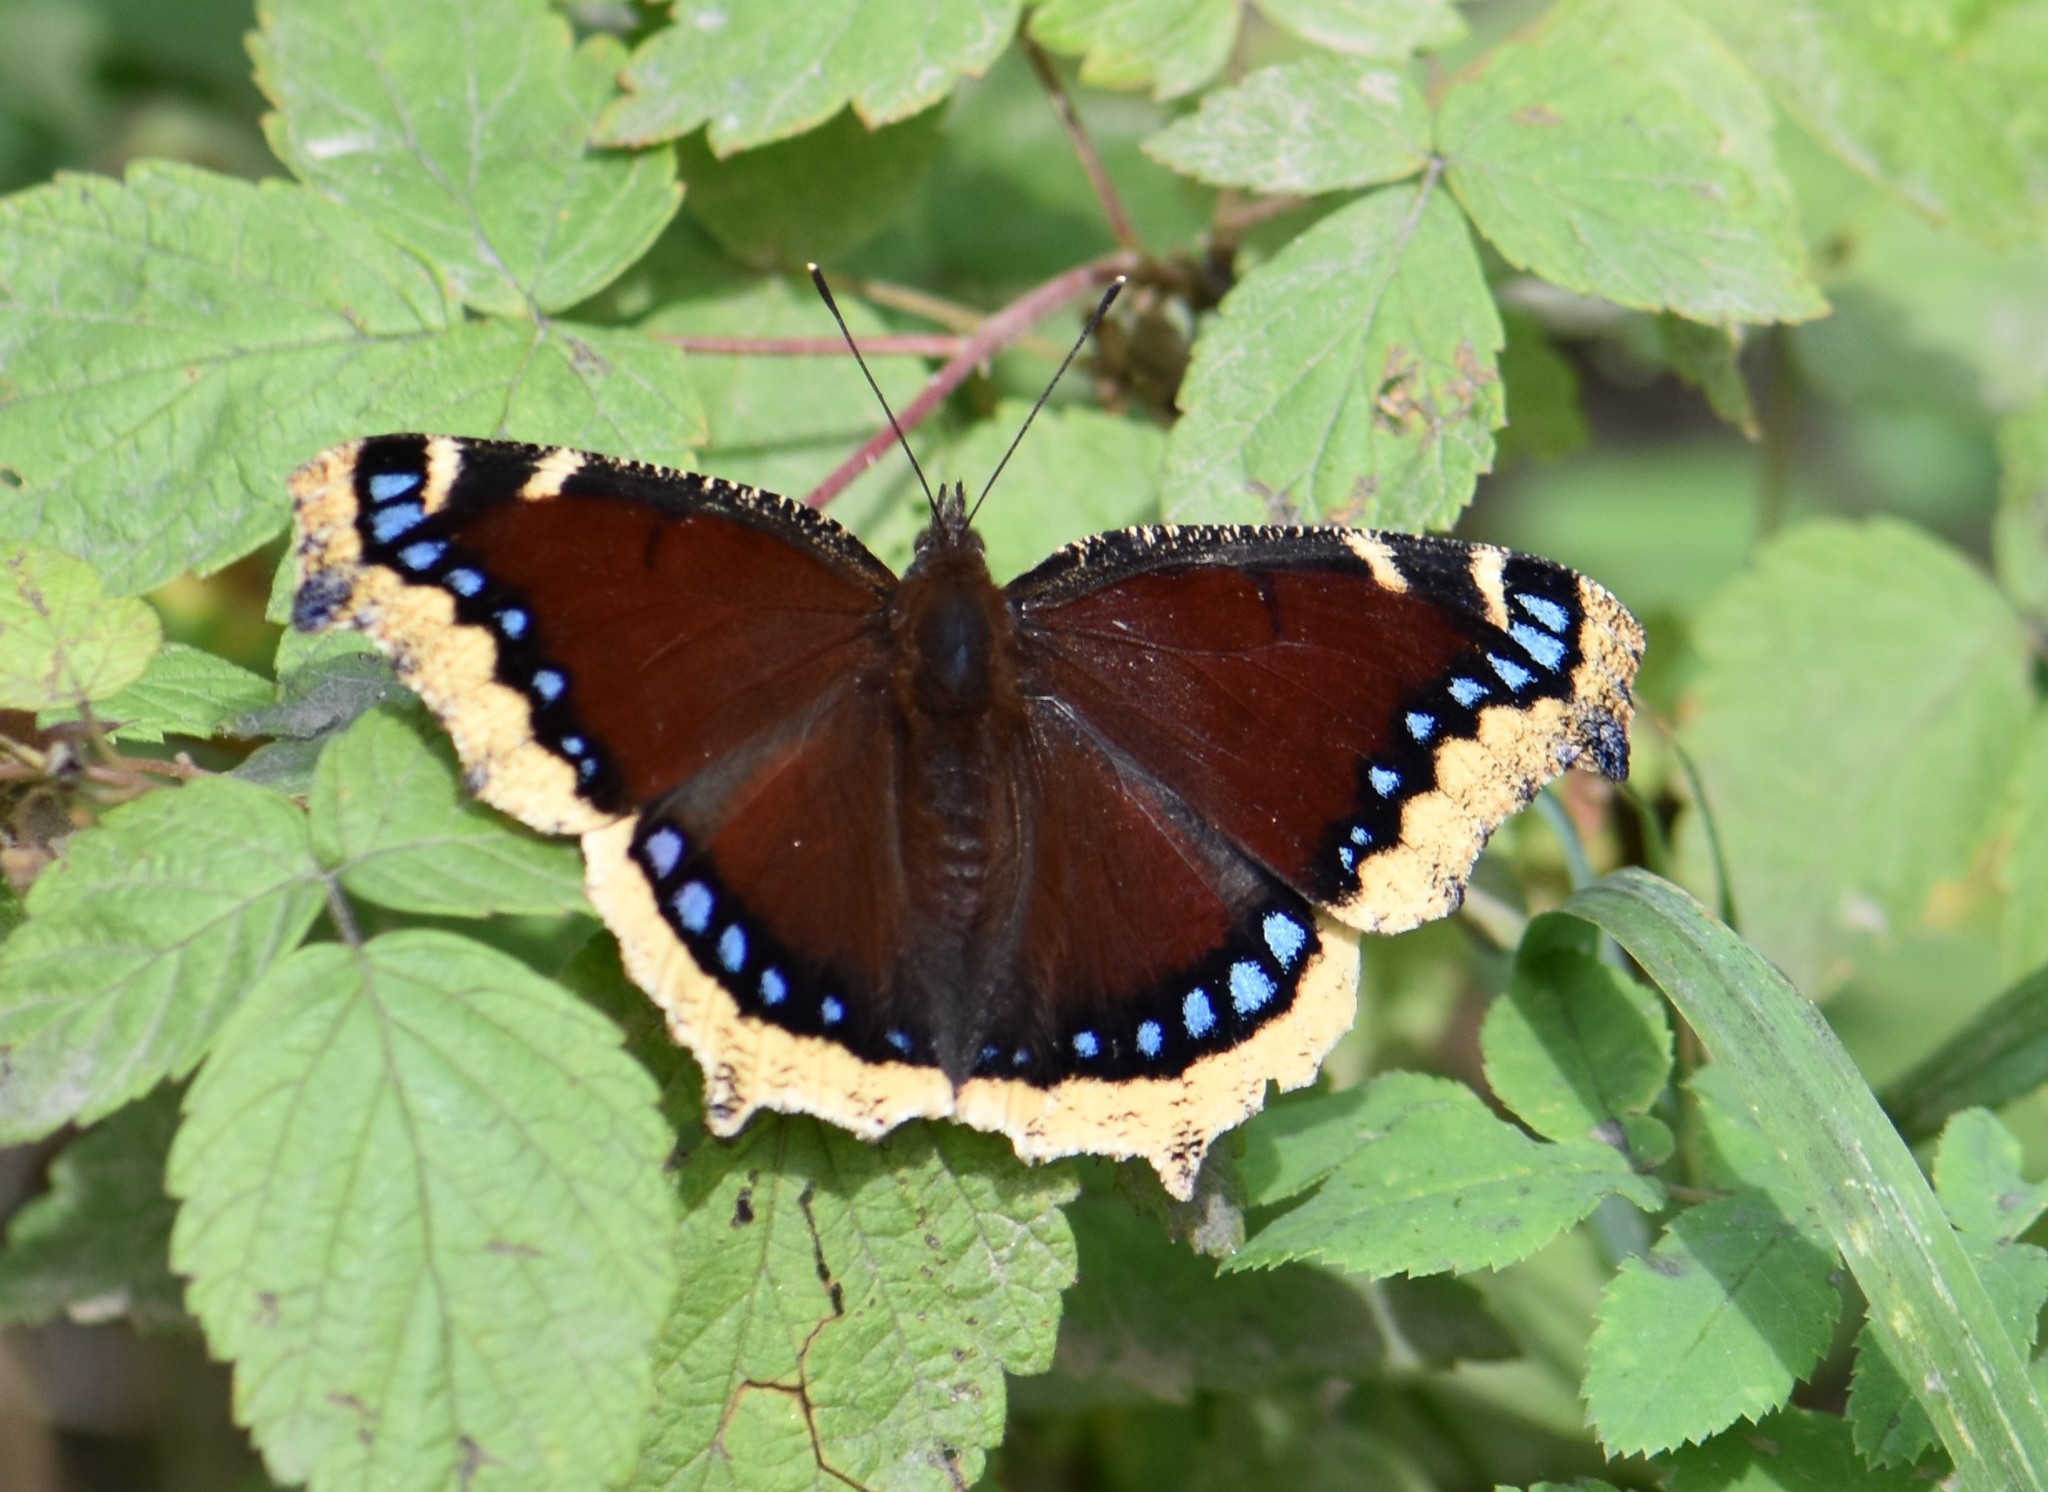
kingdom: Animalia
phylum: Arthropoda
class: Insecta
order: Lepidoptera
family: Nymphalidae
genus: Nymphalis
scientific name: Nymphalis antiopa
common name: Camberwell beauty
